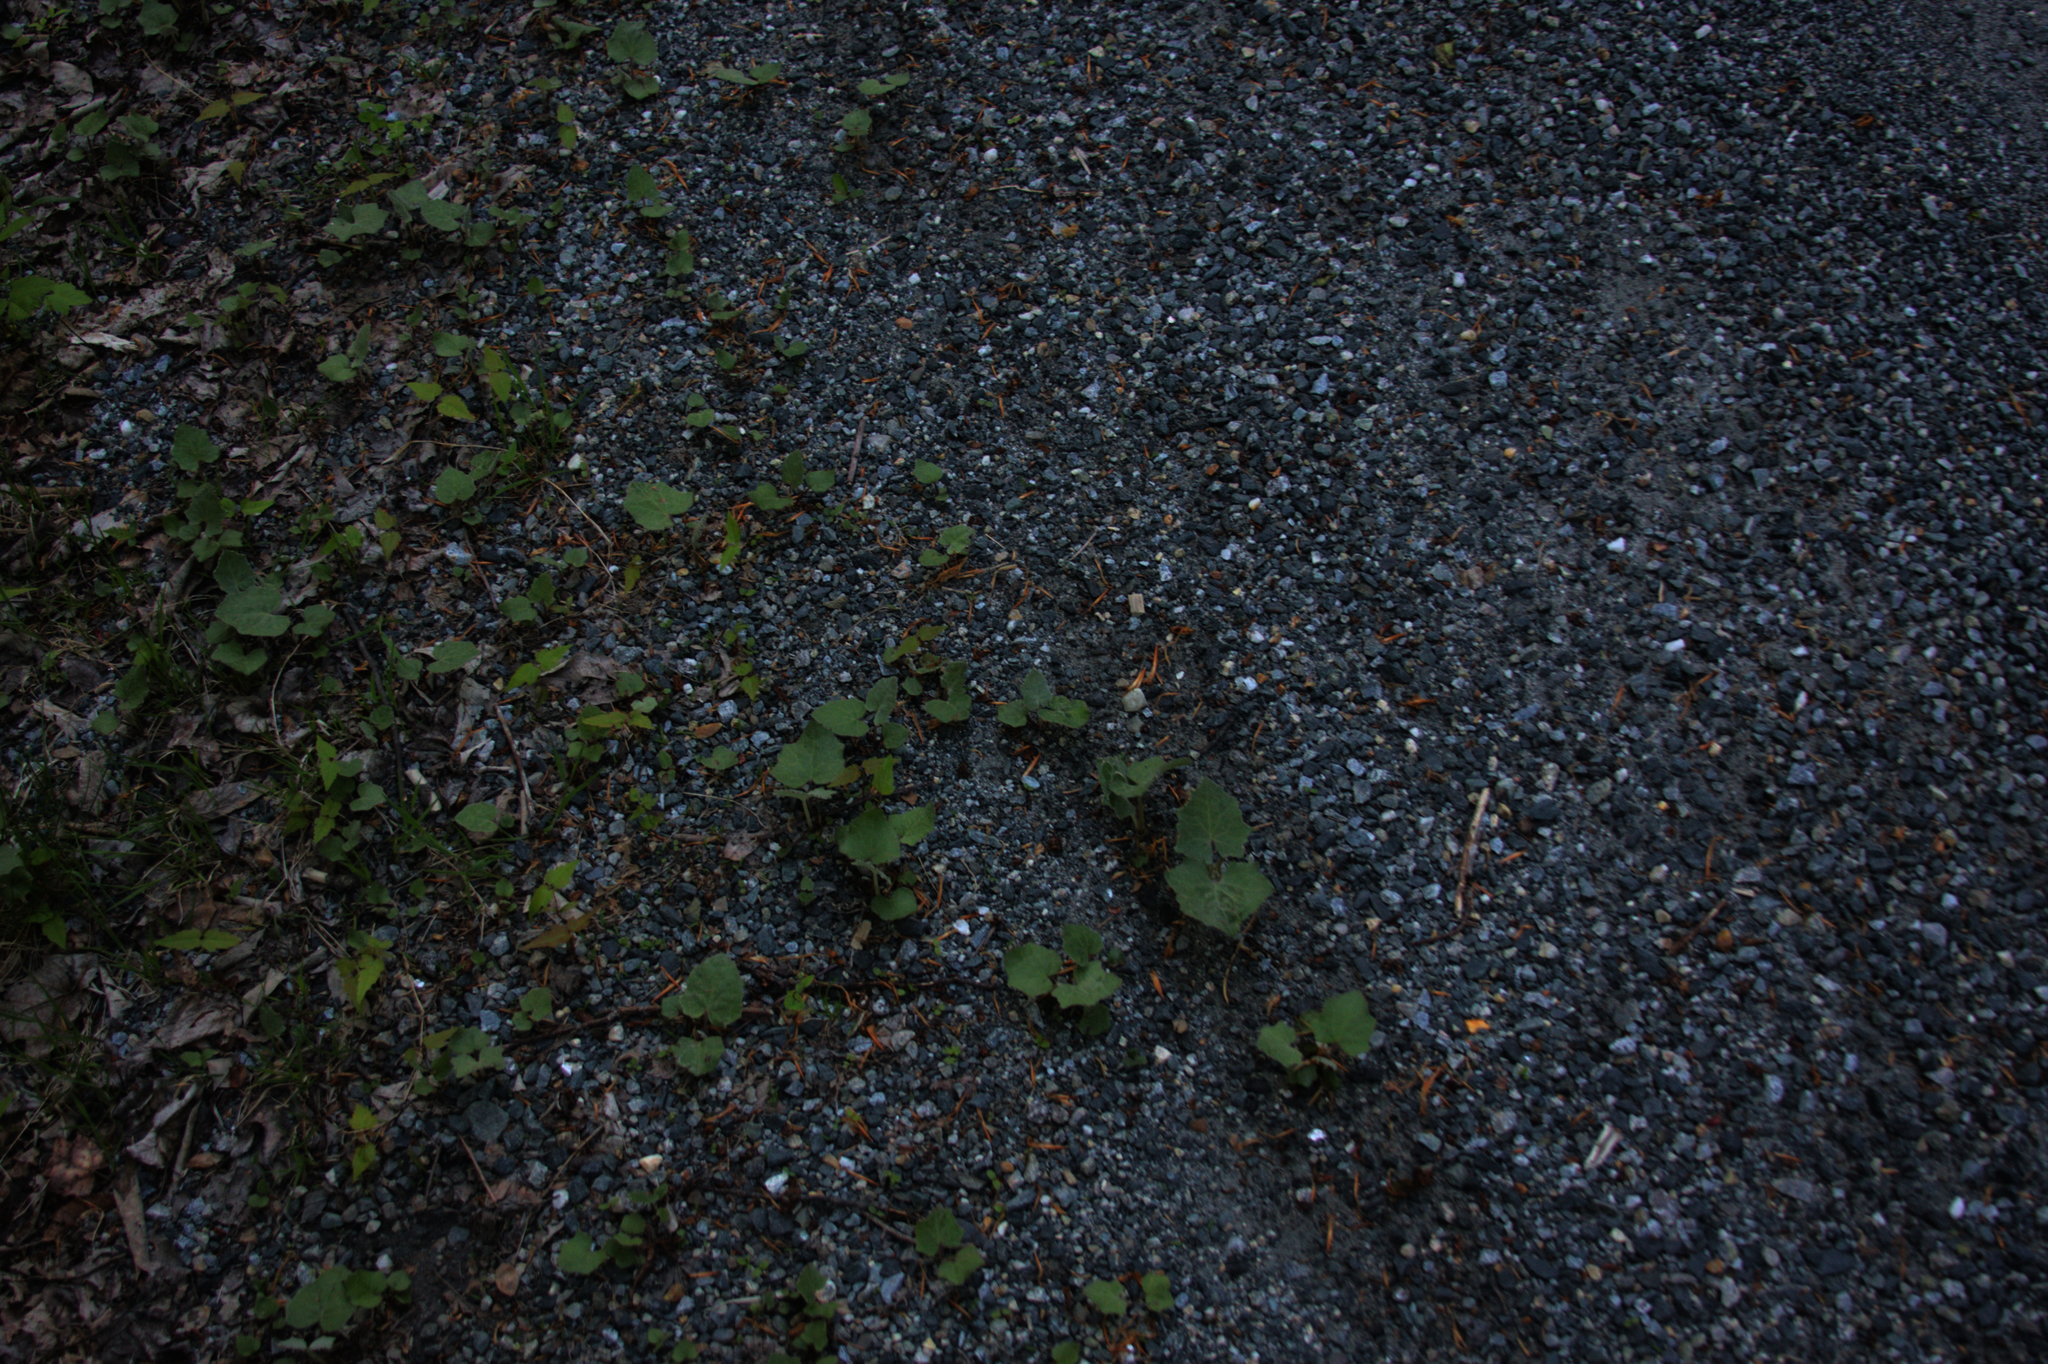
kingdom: Plantae
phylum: Tracheophyta
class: Magnoliopsida
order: Asterales
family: Asteraceae
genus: Tussilago
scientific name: Tussilago farfara
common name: Coltsfoot
